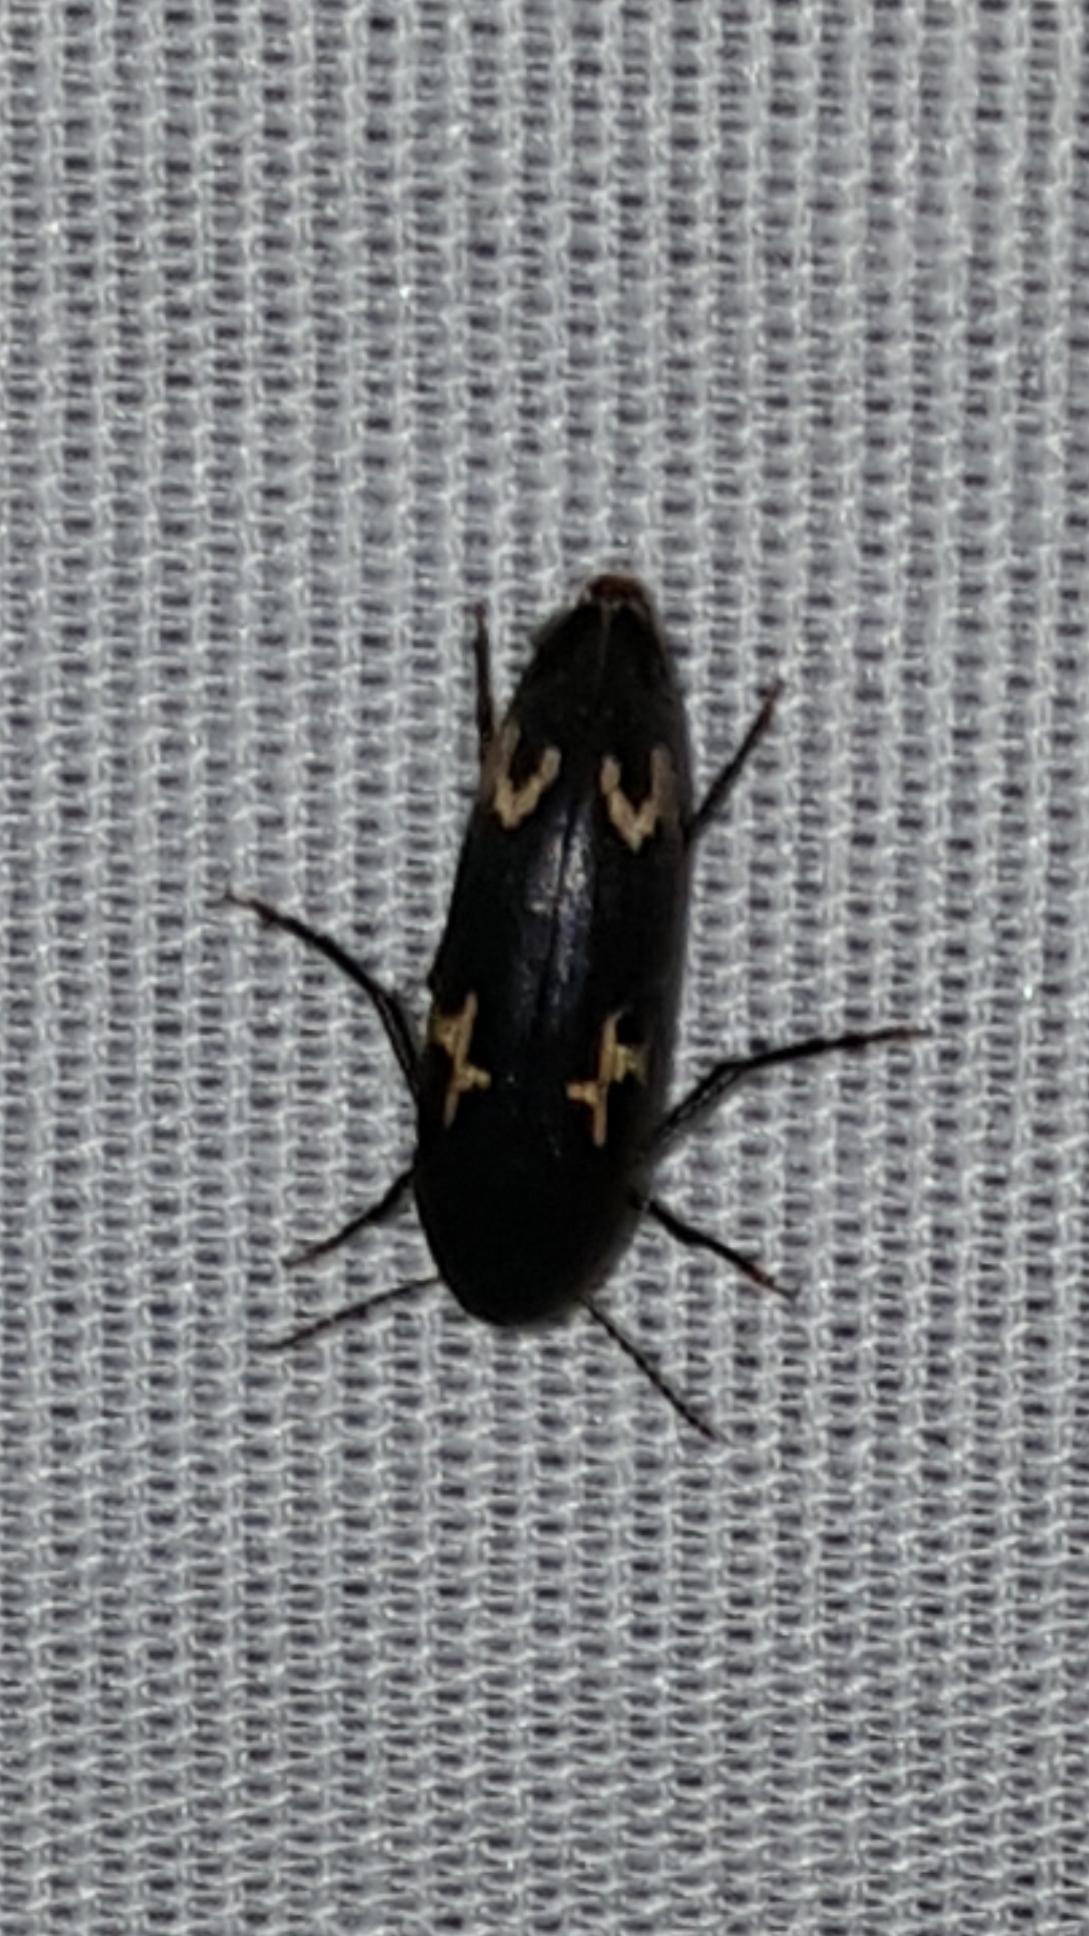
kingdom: Animalia
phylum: Arthropoda
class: Insecta
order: Coleoptera
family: Melandryidae
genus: Dircaea
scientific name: Dircaea liturata
